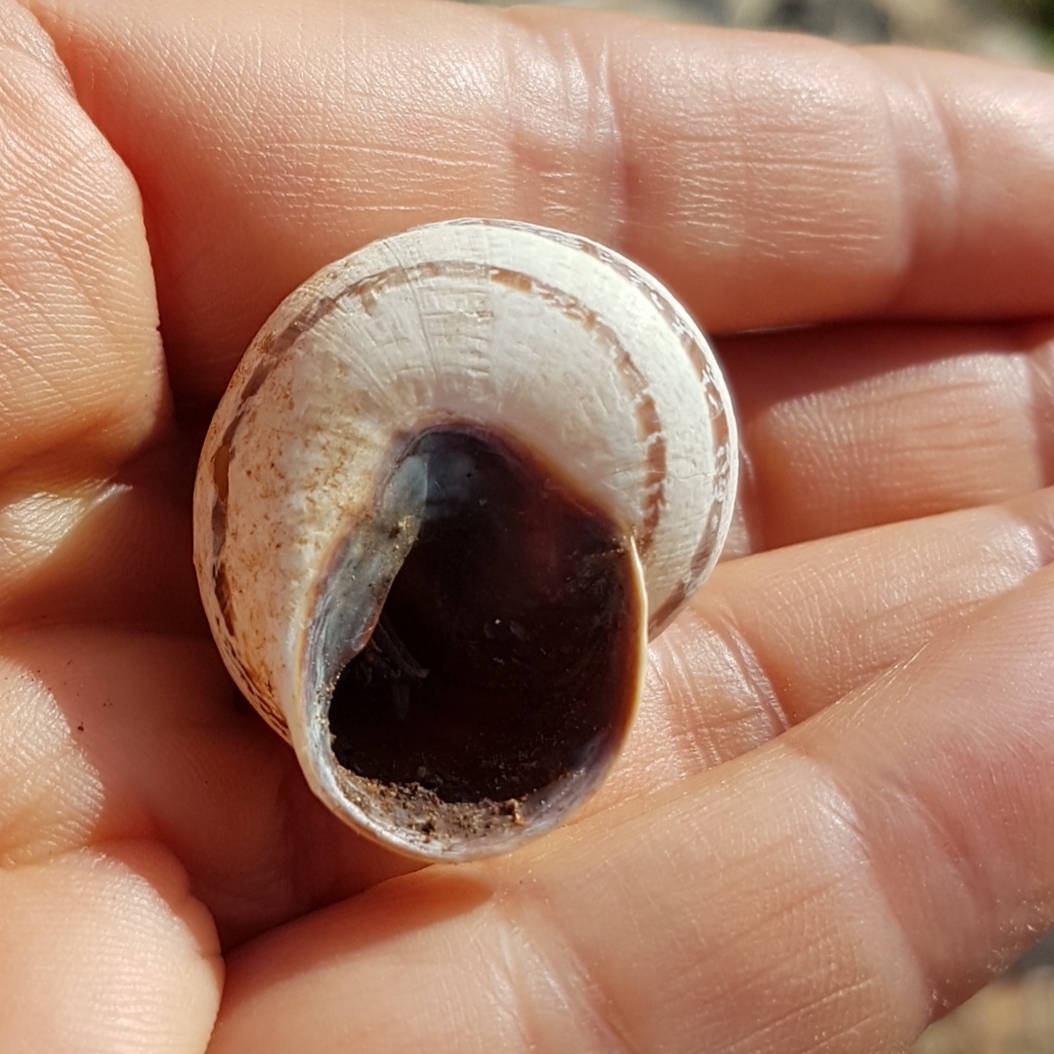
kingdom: Animalia
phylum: Mollusca
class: Gastropoda
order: Stylommatophora
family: Helicidae
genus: Otala
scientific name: Otala lactea
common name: Milk snail
